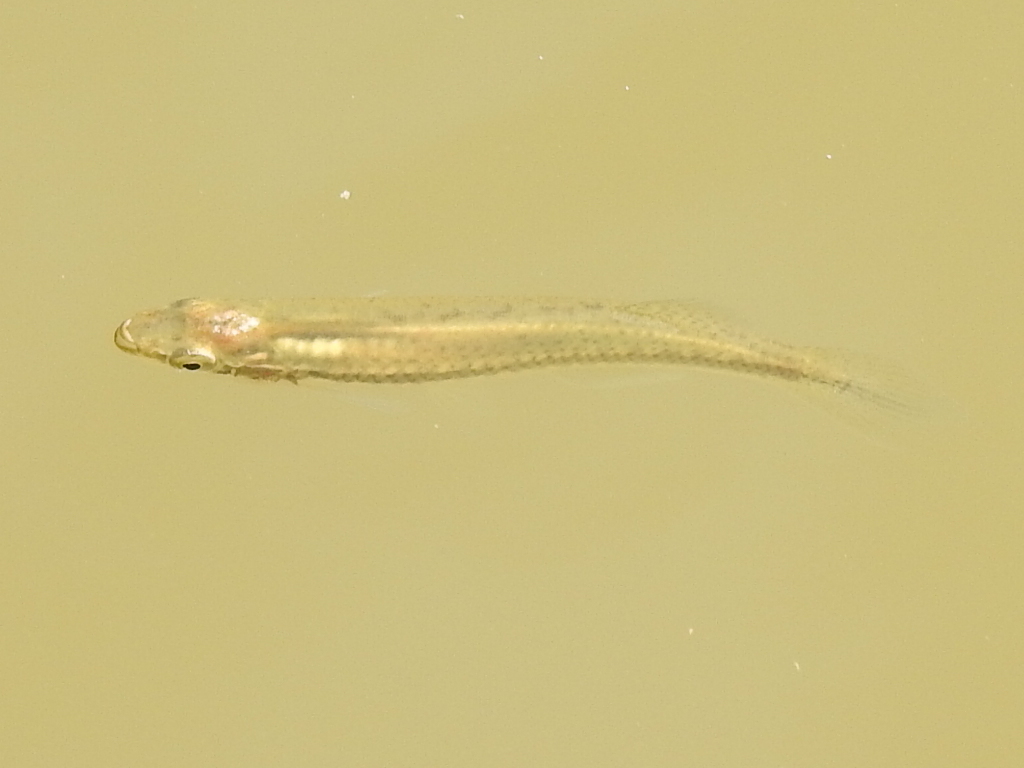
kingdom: Animalia
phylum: Chordata
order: Cyprinodontiformes
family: Fundulidae
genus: Fundulus
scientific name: Fundulus notatus
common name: Blackstripe topminnow
